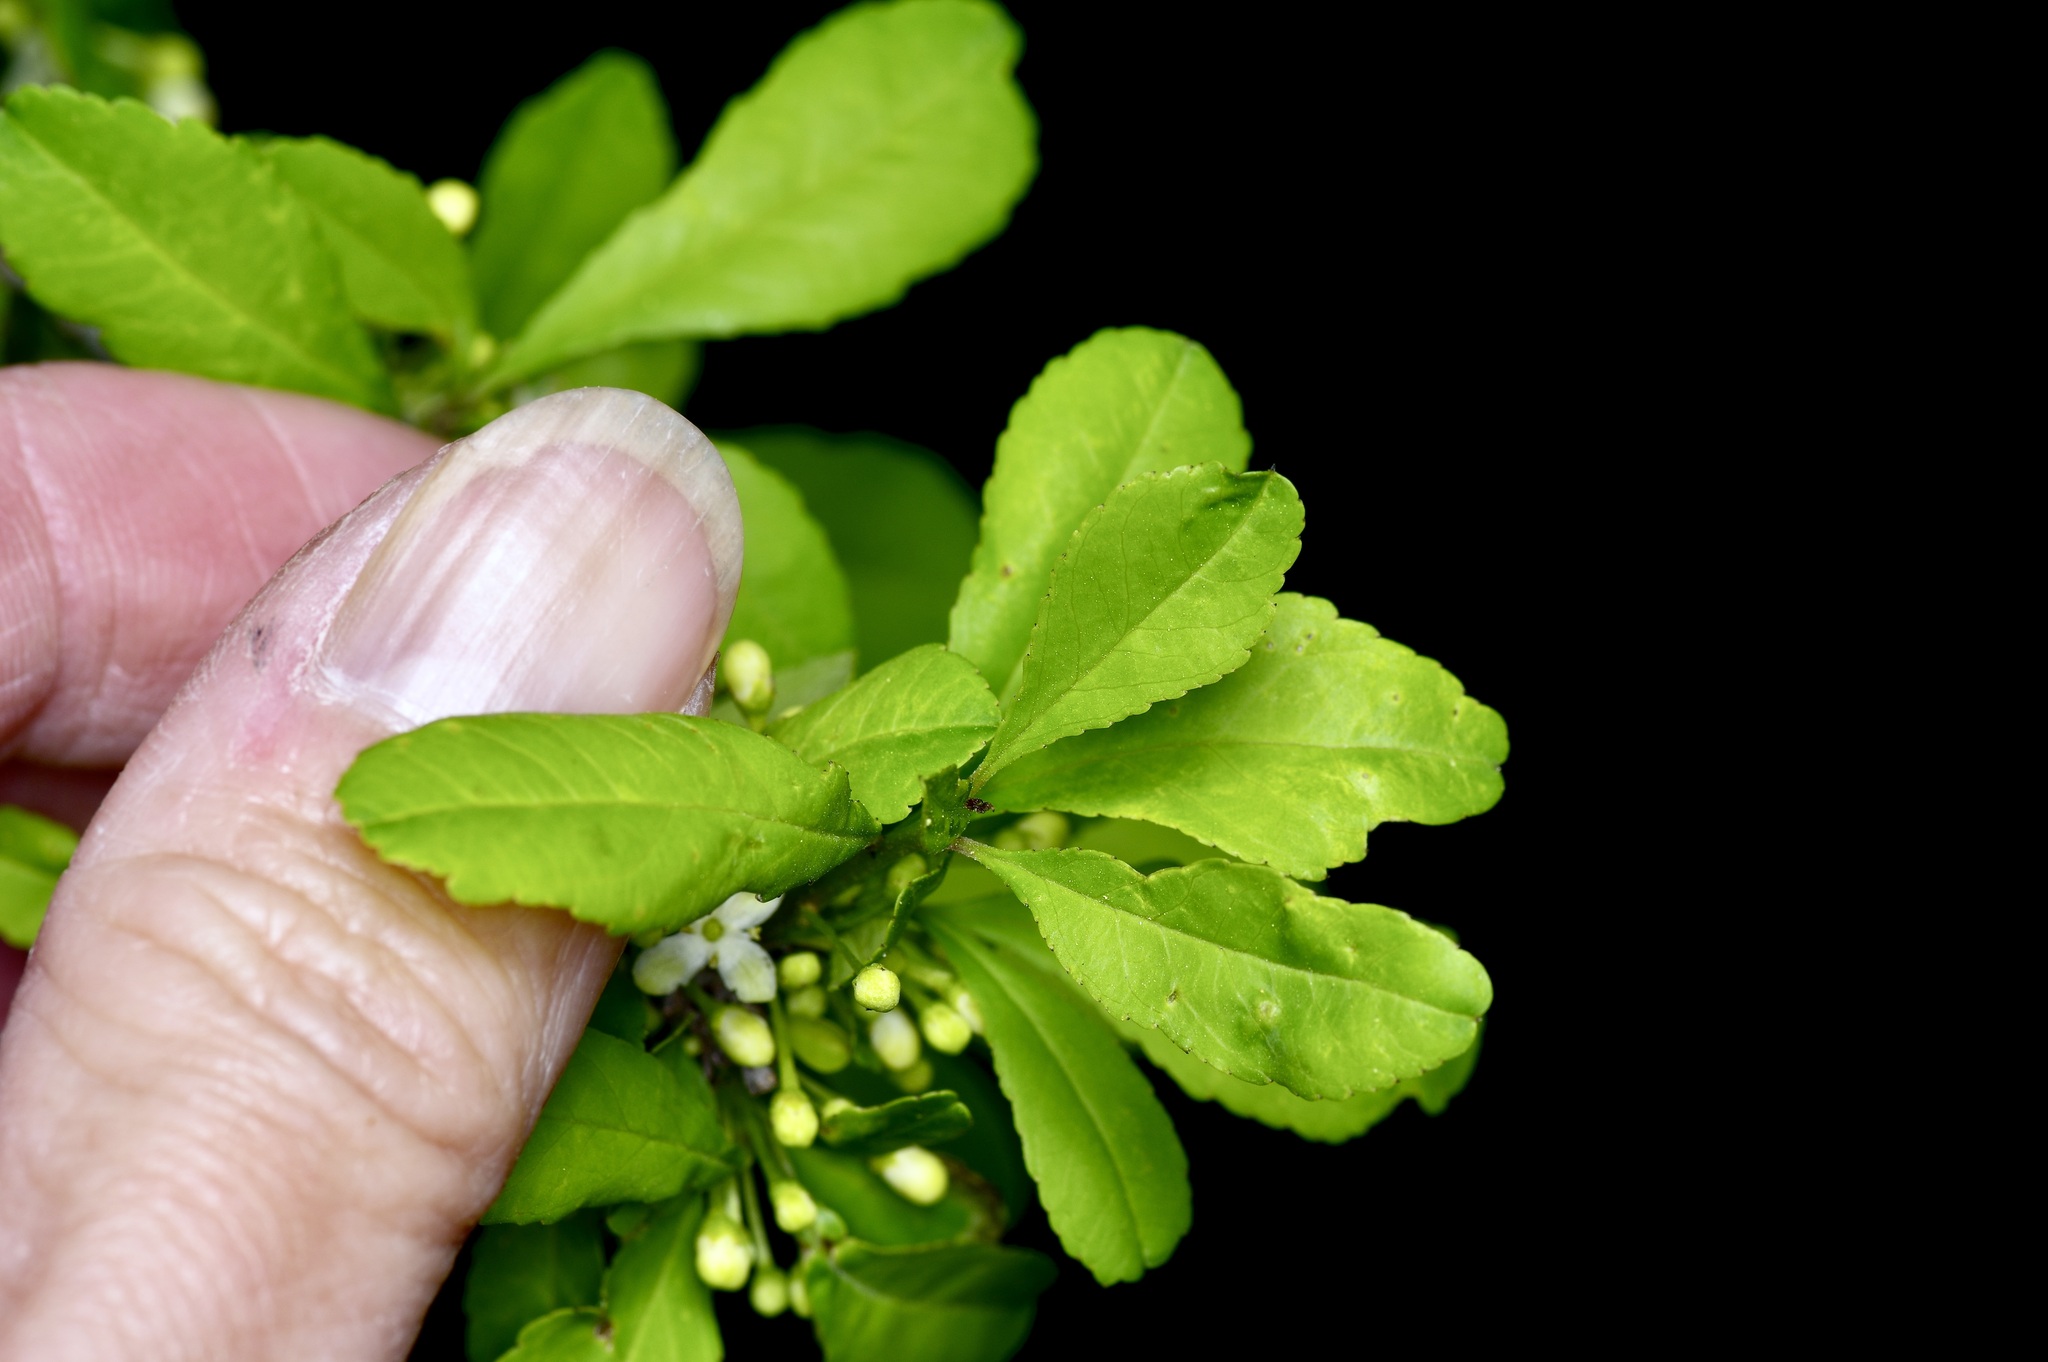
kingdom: Plantae
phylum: Tracheophyta
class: Magnoliopsida
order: Aquifoliales
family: Aquifoliaceae
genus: Ilex
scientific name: Ilex decidua
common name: Possum-haw
